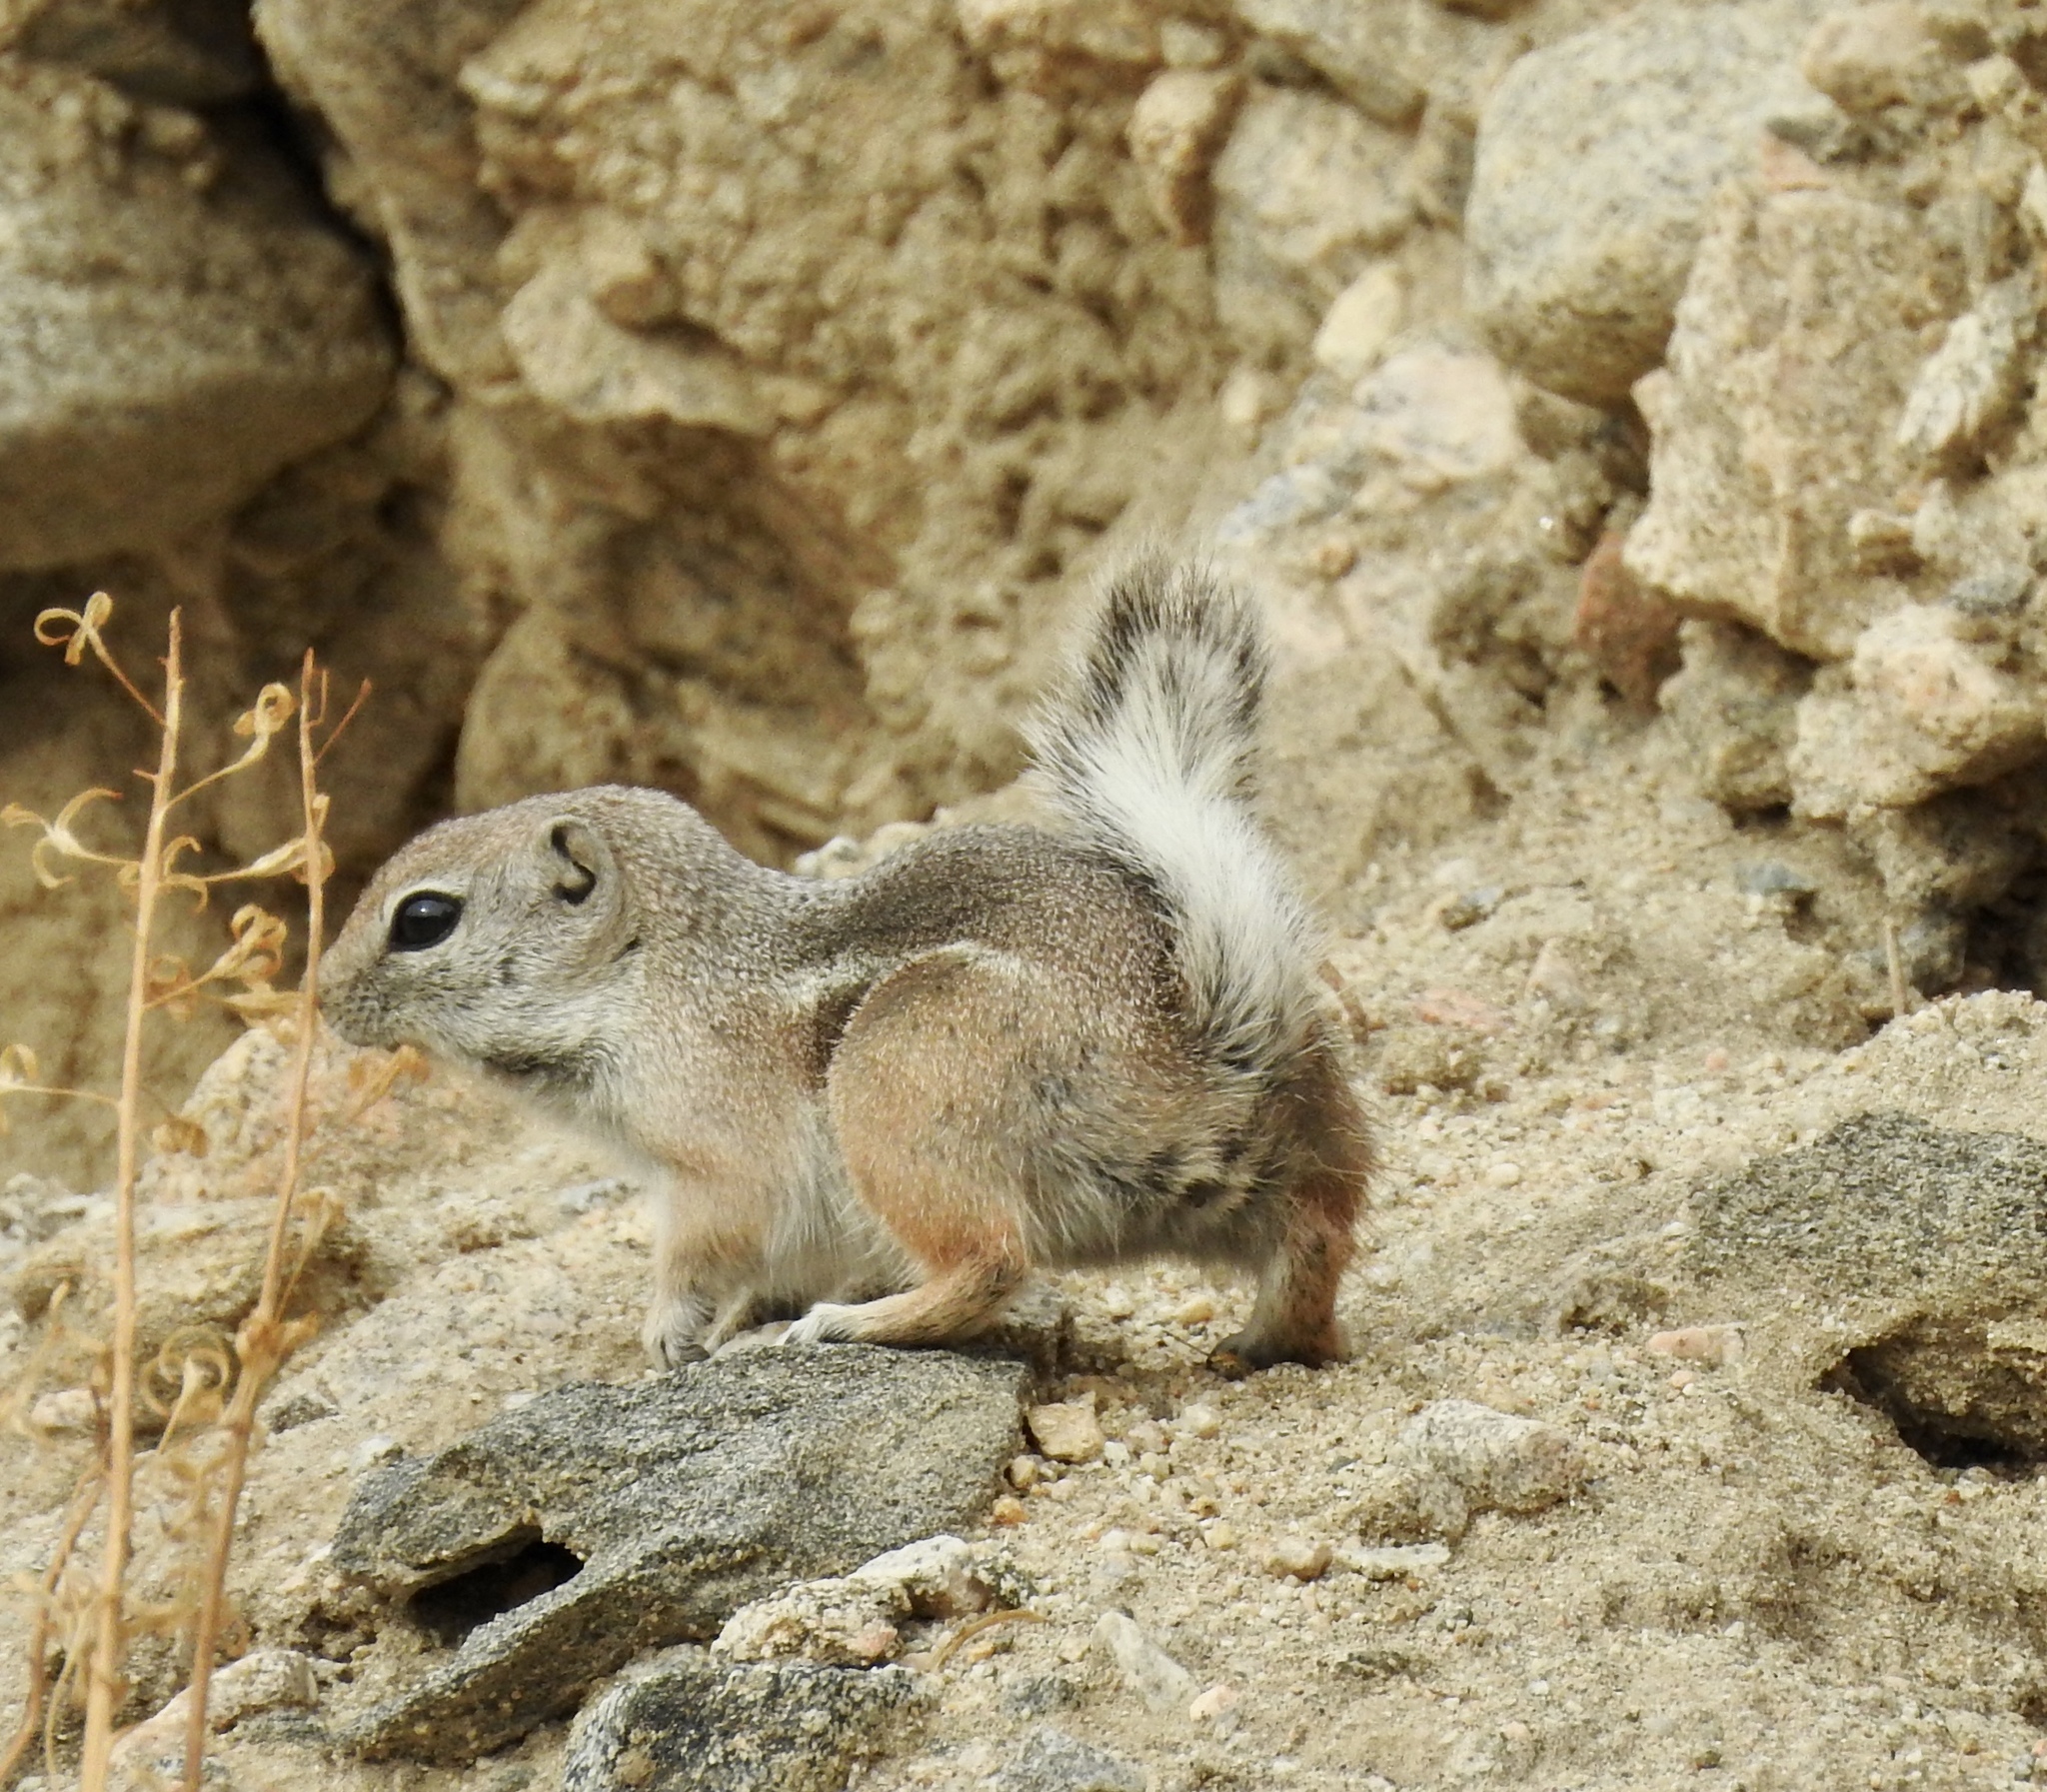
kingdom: Animalia
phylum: Chordata
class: Mammalia
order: Rodentia
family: Sciuridae
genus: Ammospermophilus
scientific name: Ammospermophilus leucurus
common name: White-tailed antelope squirrel
